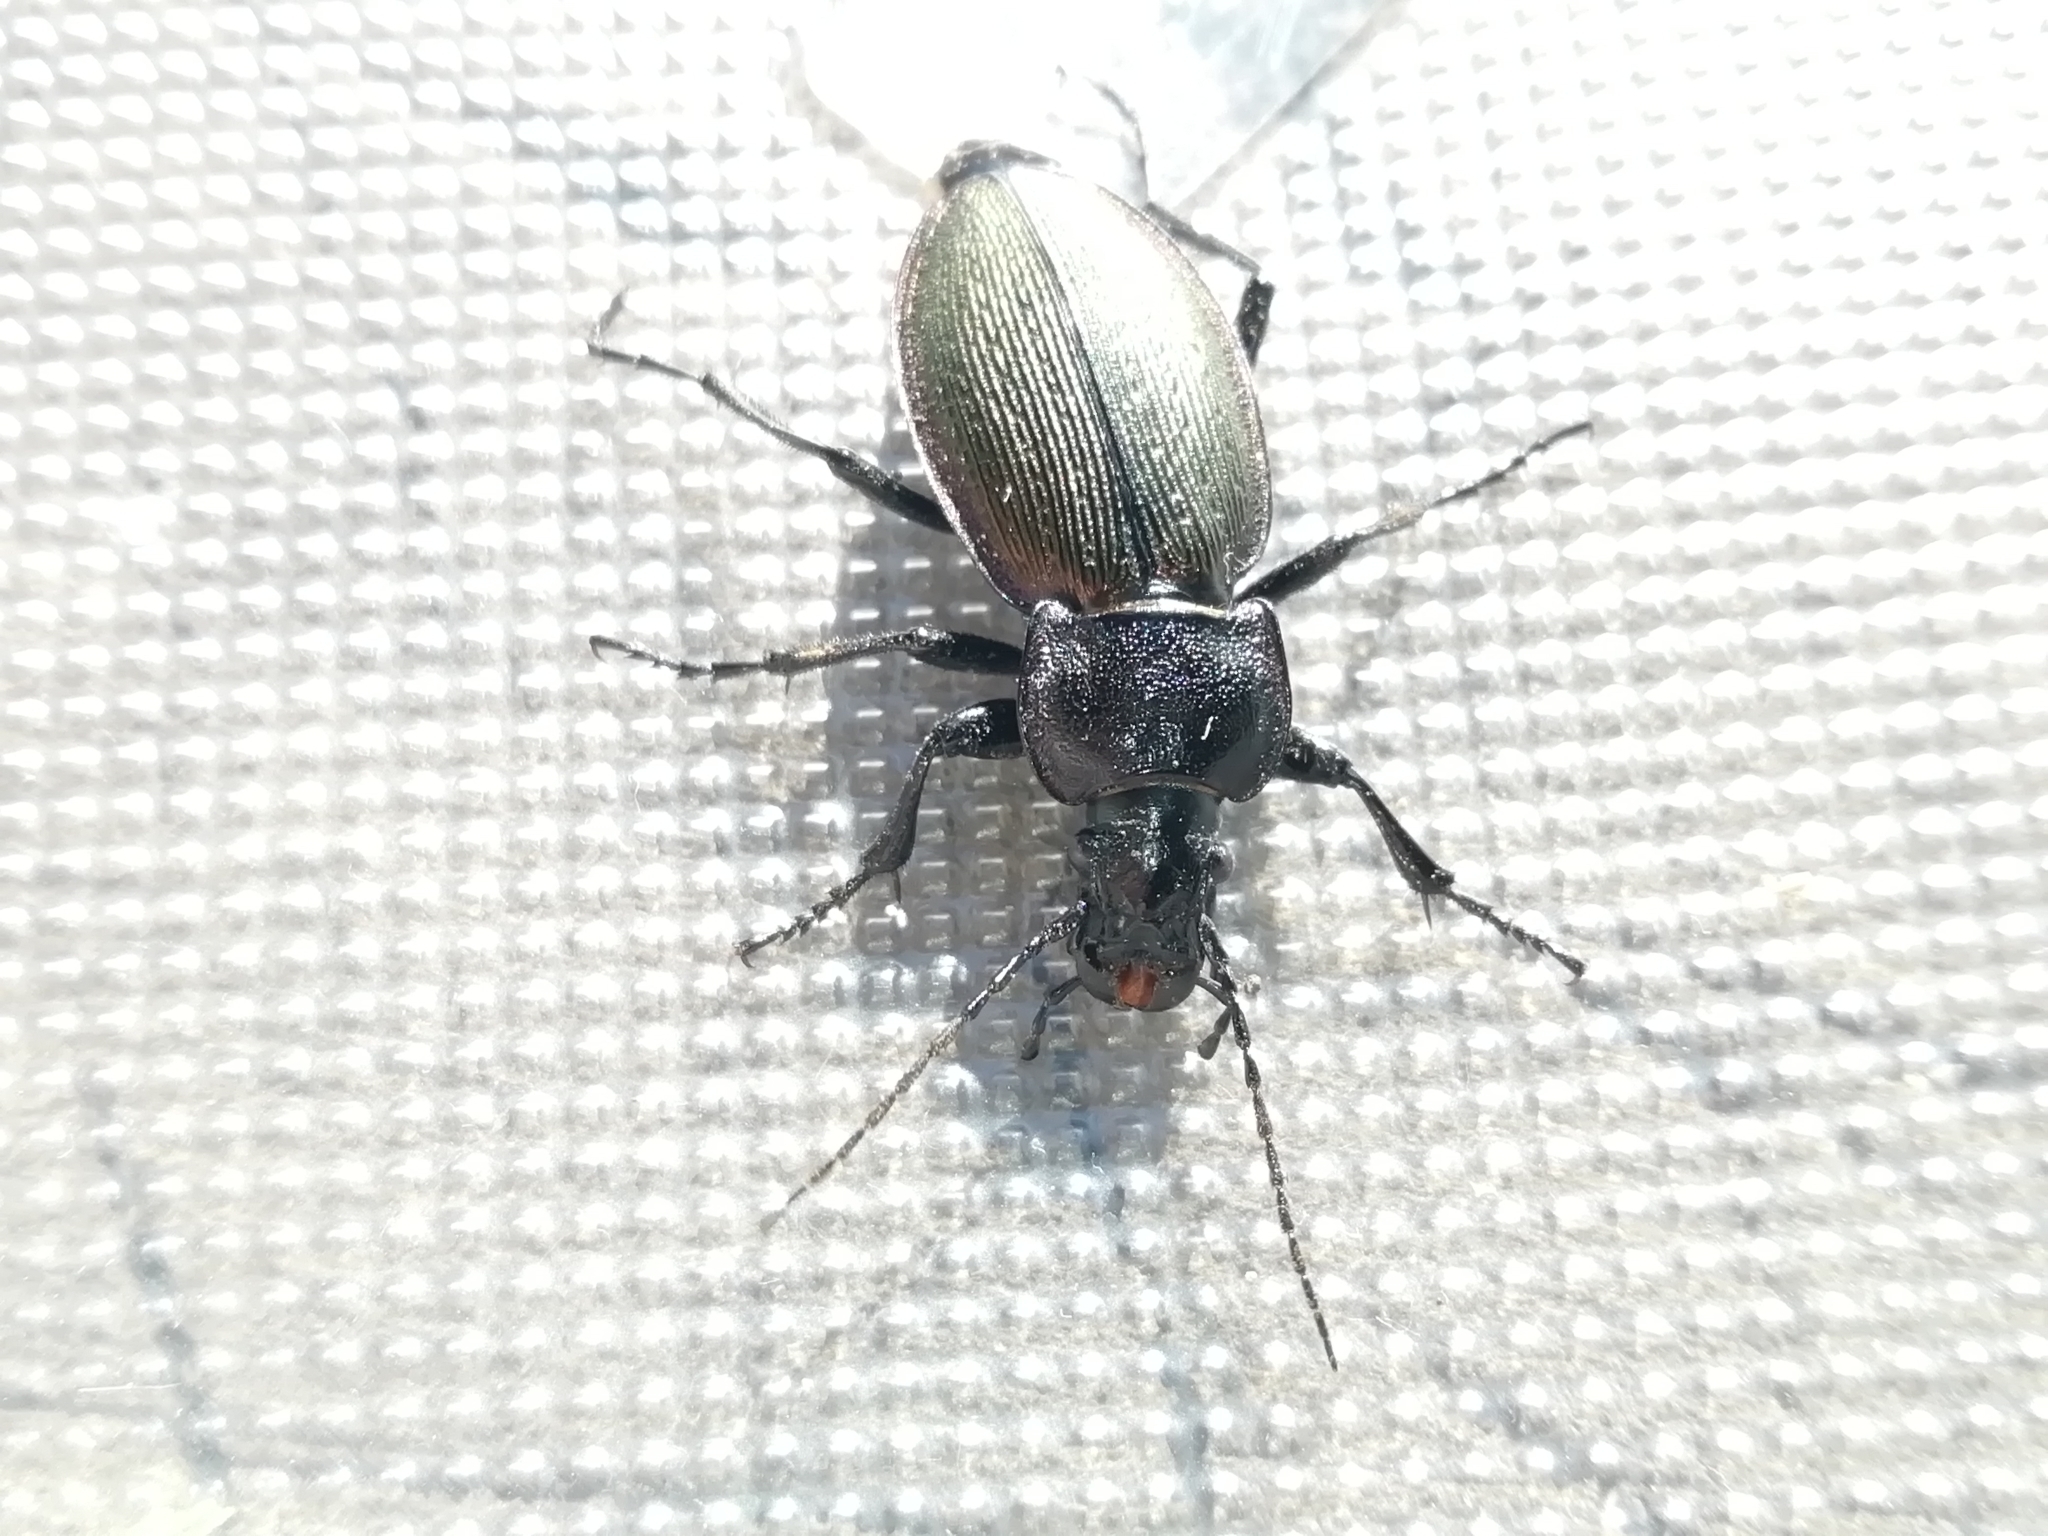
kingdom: Animalia
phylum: Arthropoda
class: Insecta
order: Coleoptera
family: Carabidae
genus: Carabus
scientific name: Carabus regalis
